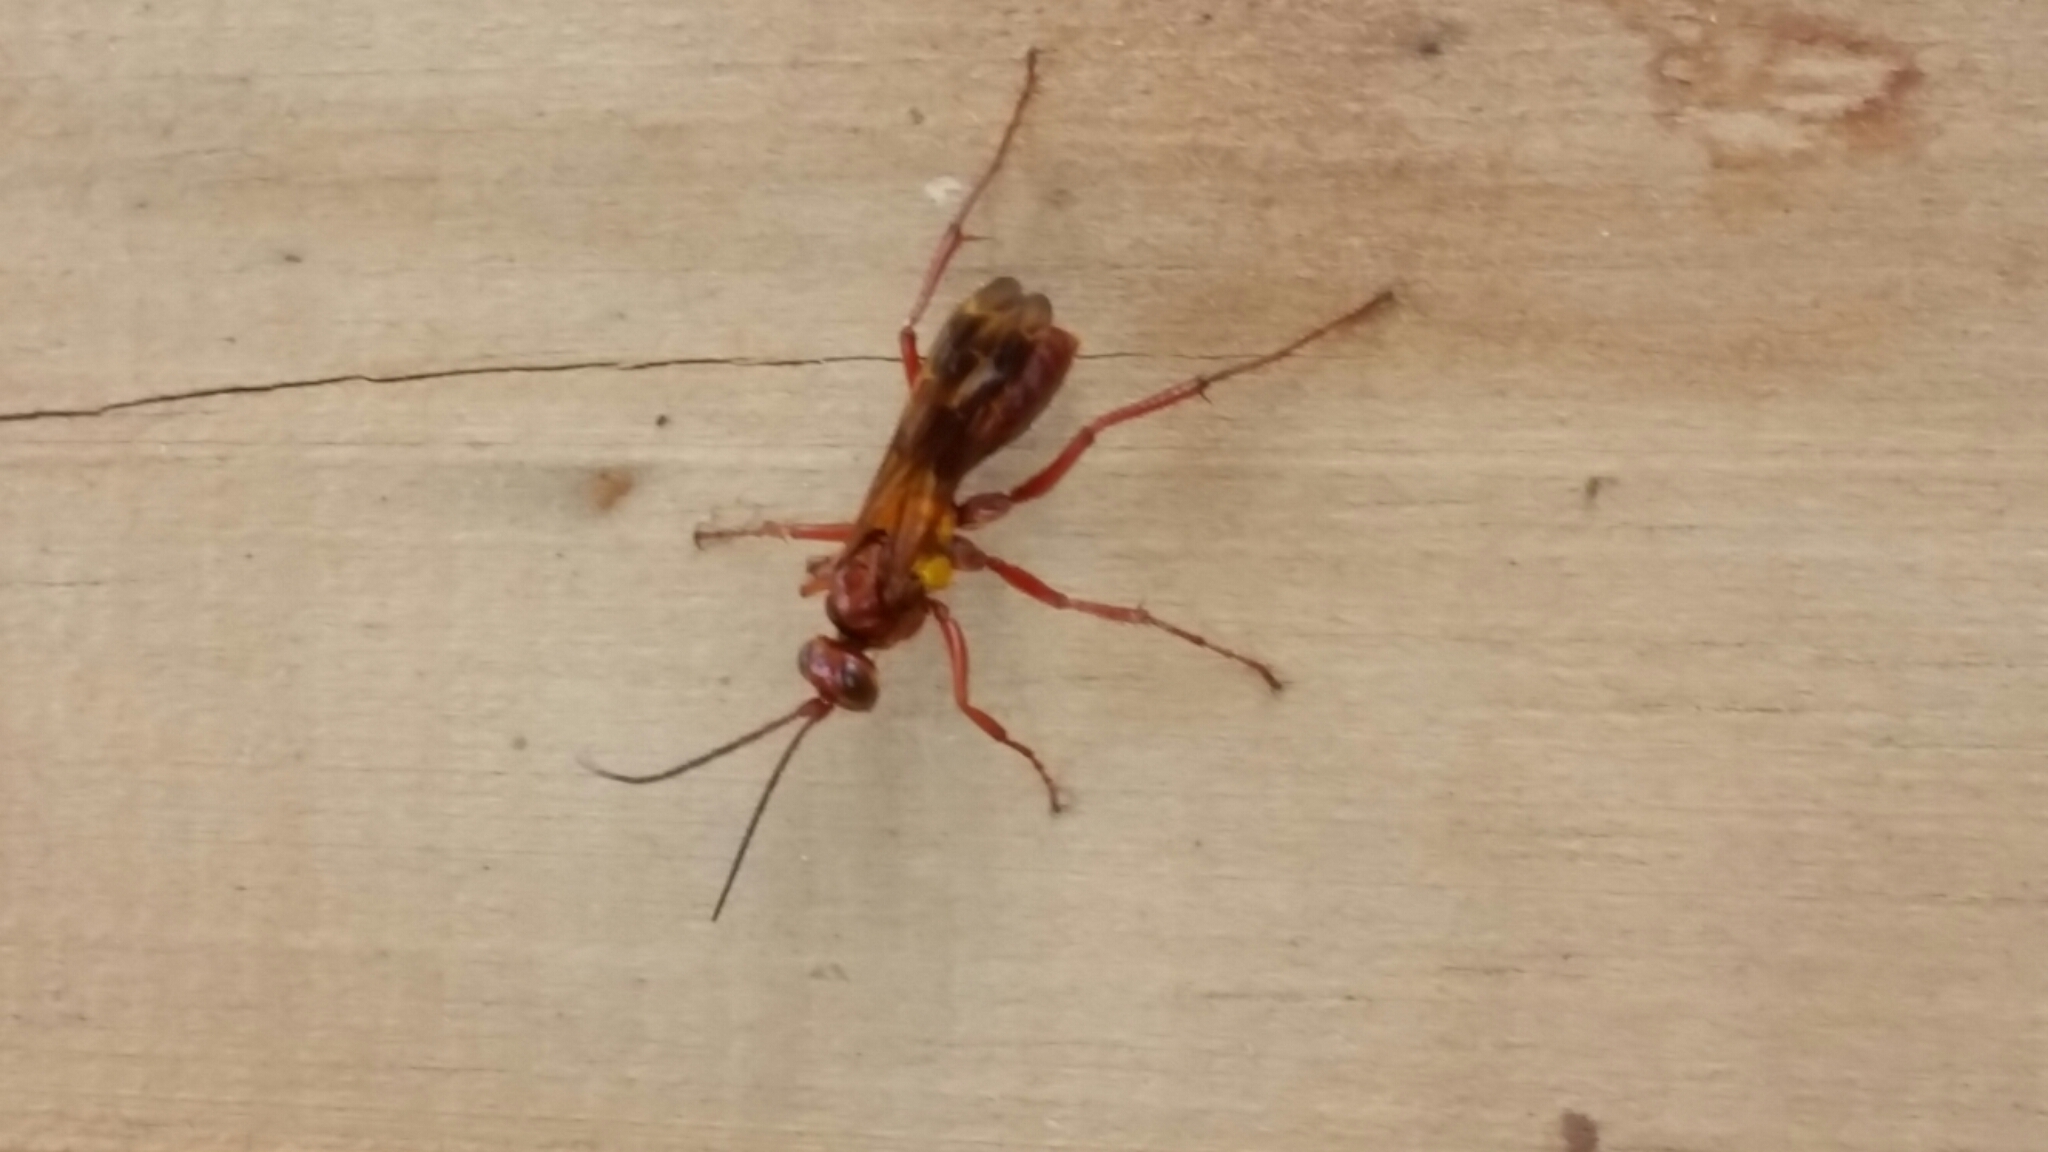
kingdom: Animalia
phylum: Arthropoda
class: Insecta
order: Hymenoptera
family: Pompilidae
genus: Sphictostethus
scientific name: Sphictostethus nitidus
